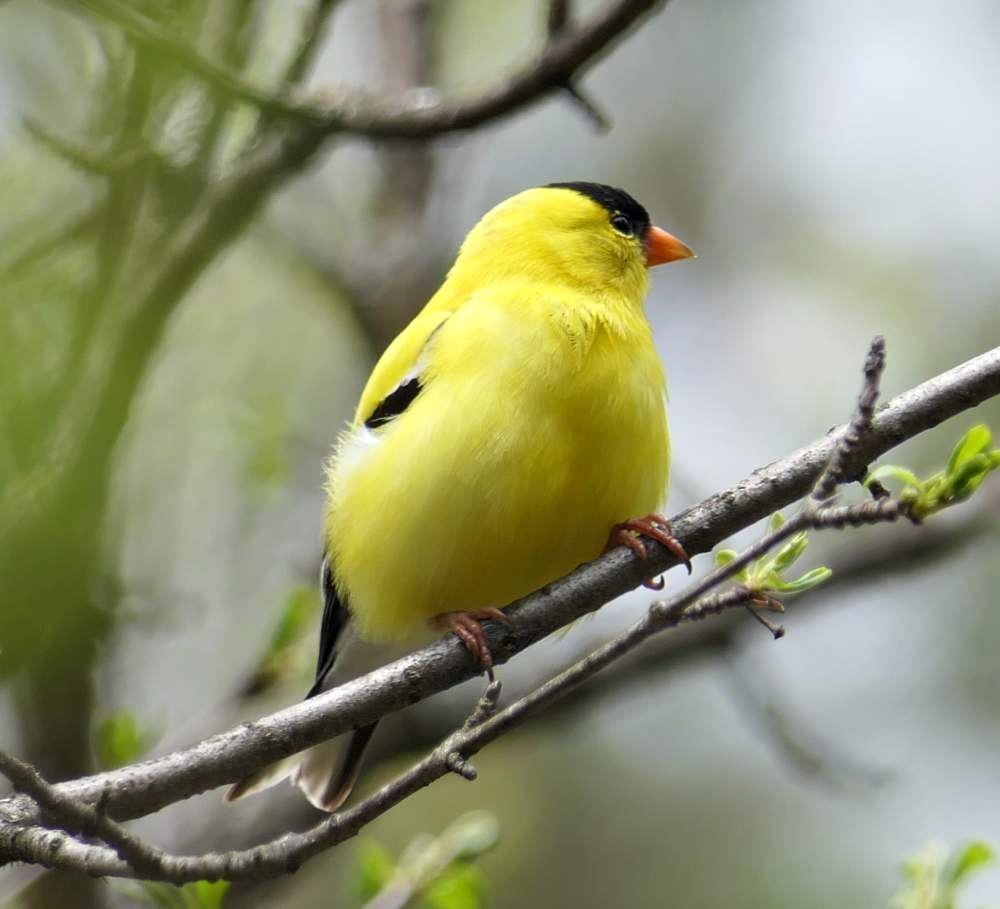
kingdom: Animalia
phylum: Chordata
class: Aves
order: Passeriformes
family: Fringillidae
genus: Spinus
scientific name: Spinus tristis
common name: American goldfinch
